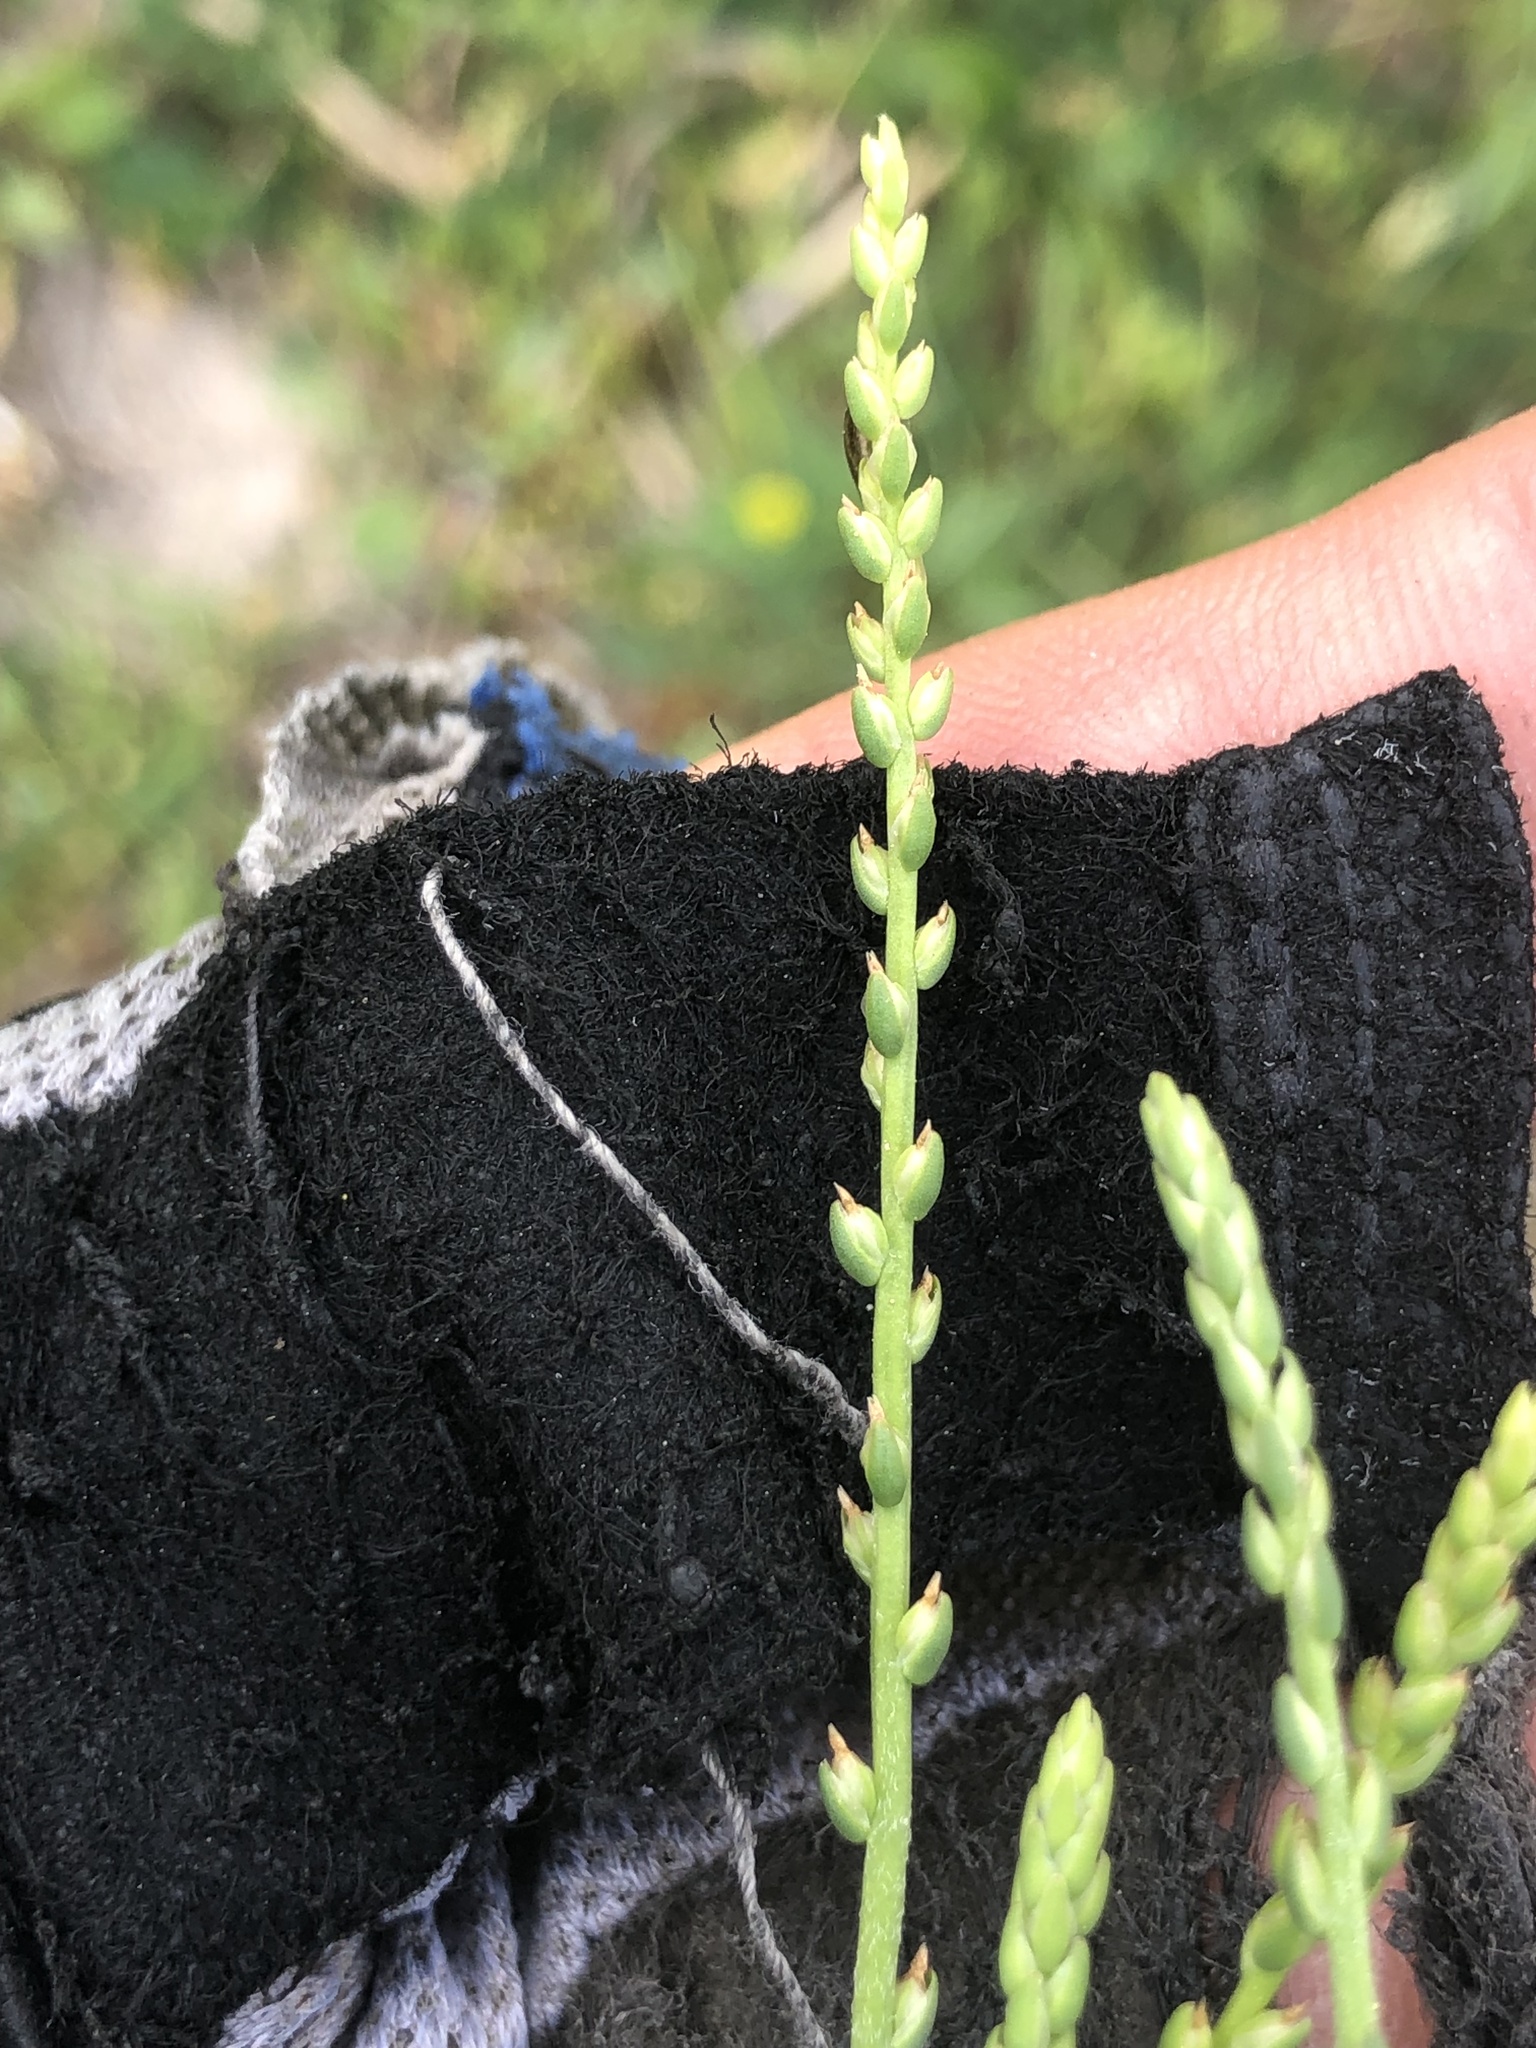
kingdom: Plantae
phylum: Tracheophyta
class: Magnoliopsida
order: Lamiales
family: Plantaginaceae
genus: Plantago
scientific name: Plantago heterophylla
